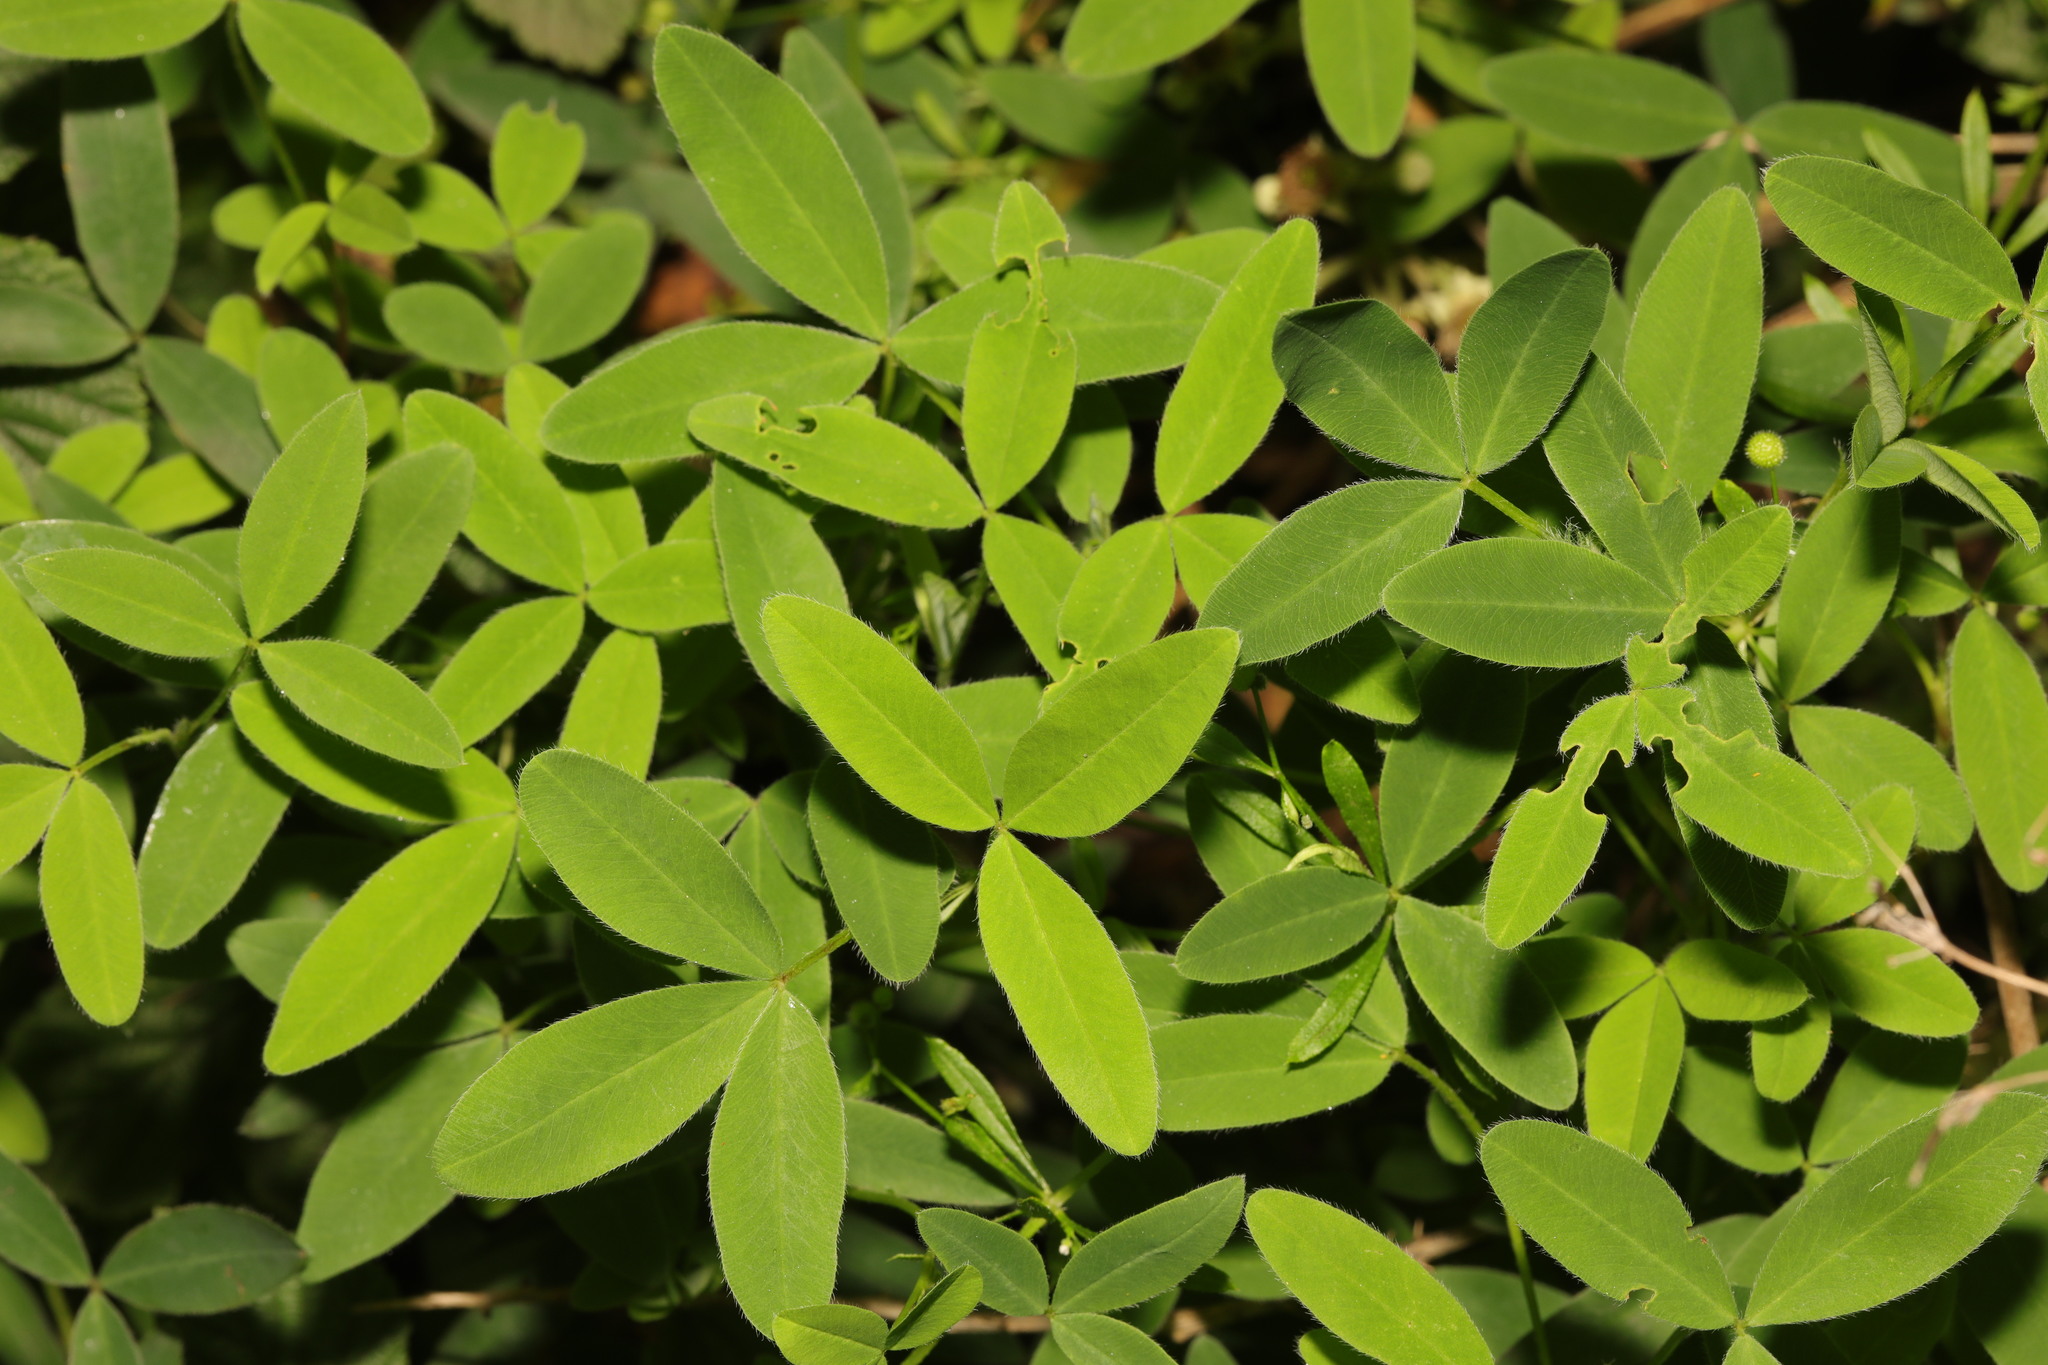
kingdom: Plantae
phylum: Tracheophyta
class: Magnoliopsida
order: Fabales
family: Fabaceae
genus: Trifolium
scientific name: Trifolium medium
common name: Zigzag clover
